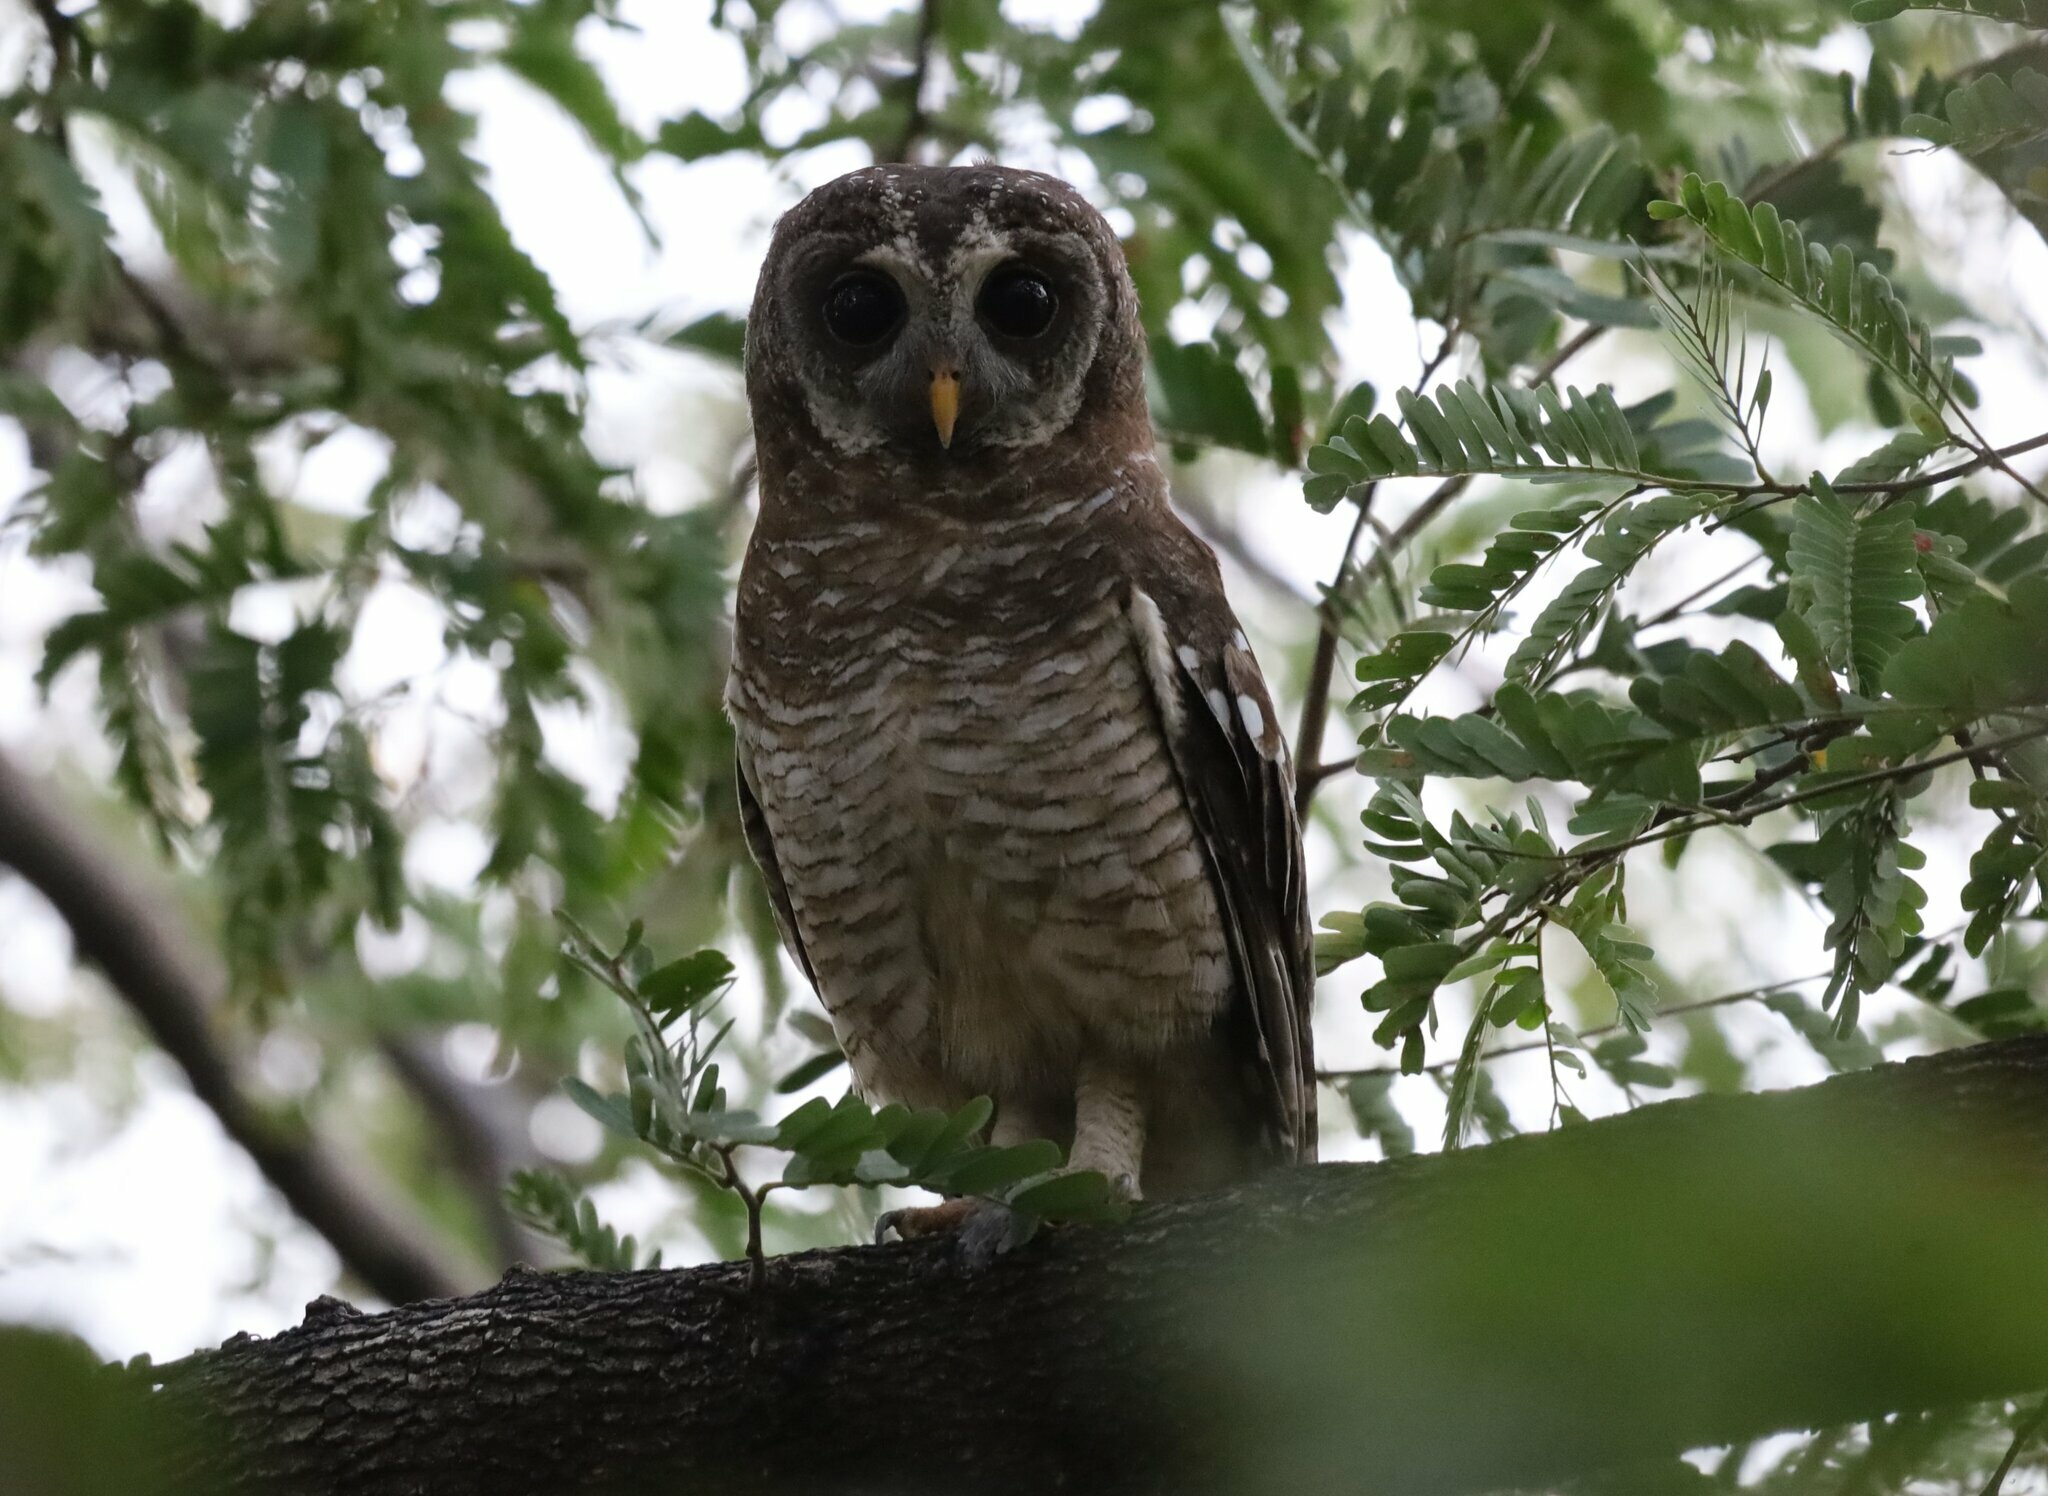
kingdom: Animalia
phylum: Chordata
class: Aves
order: Strigiformes
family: Strigidae
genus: Strix
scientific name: Strix woodfordii
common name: African wood owl
